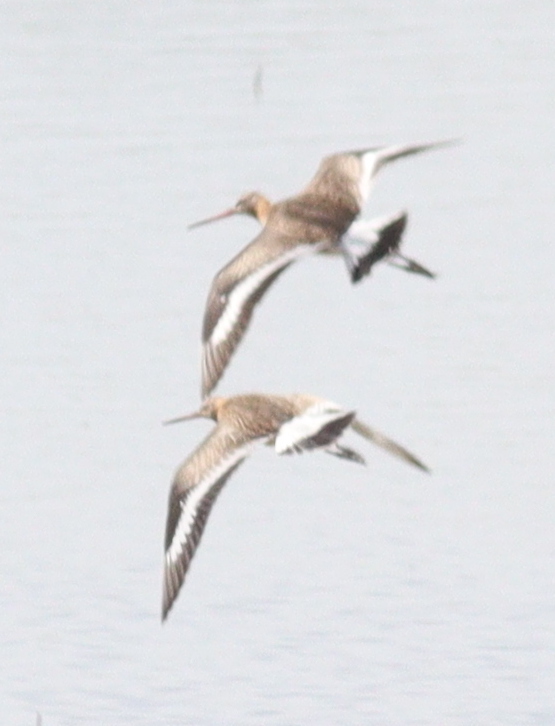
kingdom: Animalia
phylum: Chordata
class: Aves
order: Charadriiformes
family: Scolopacidae
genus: Limosa
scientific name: Limosa limosa
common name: Black-tailed godwit
